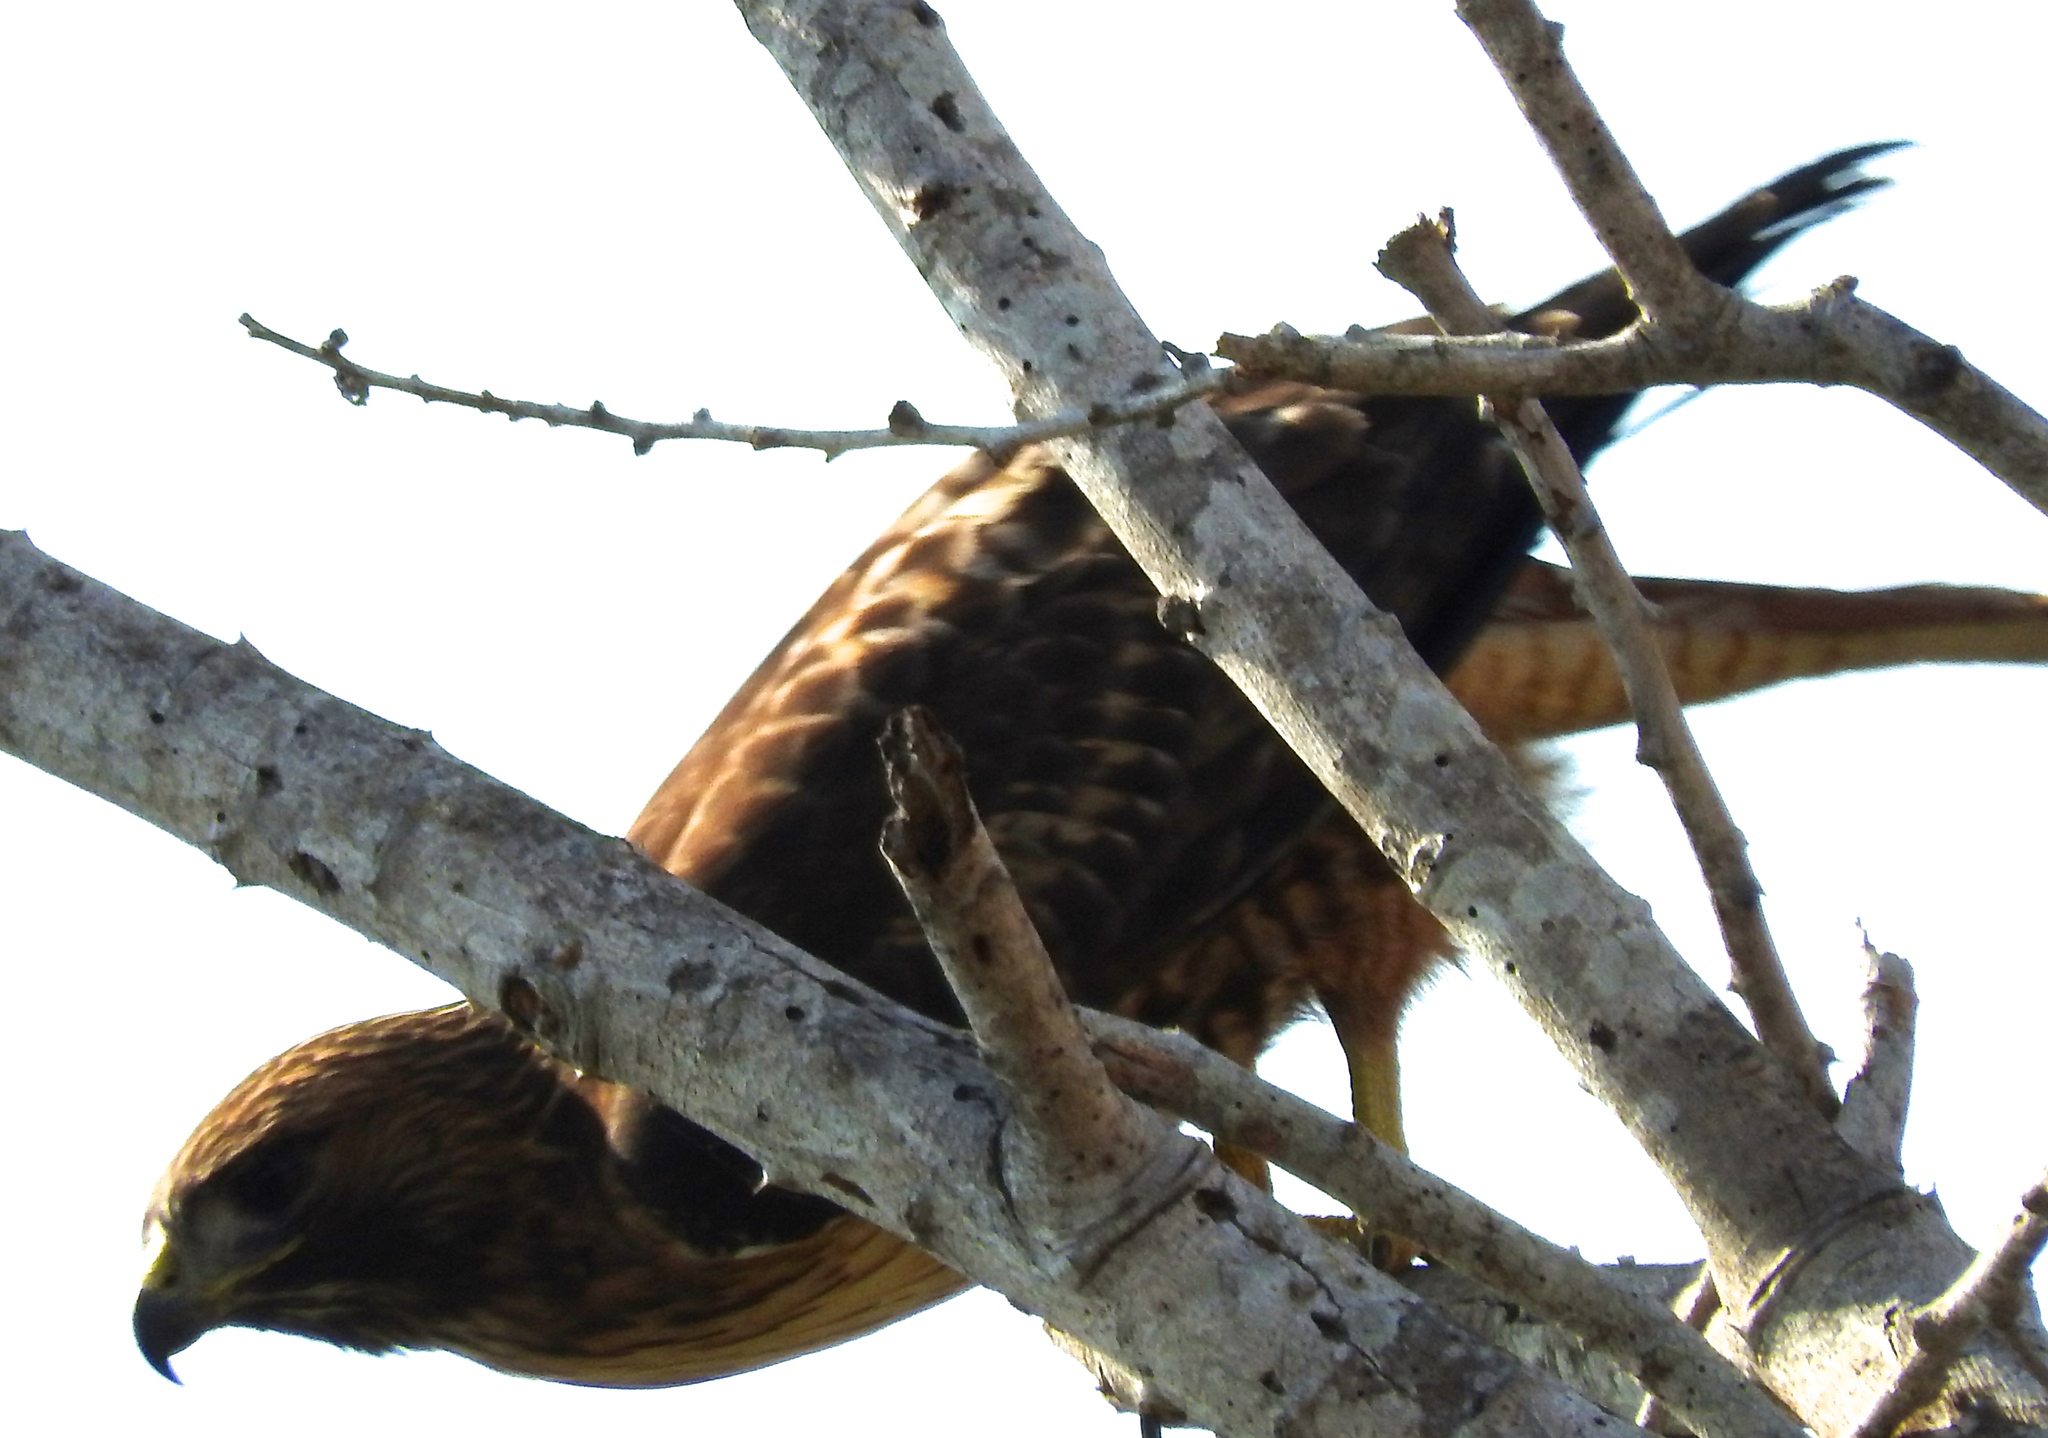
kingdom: Animalia
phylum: Chordata
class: Aves
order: Accipitriformes
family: Accipitridae
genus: Buteo
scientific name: Buteo jamaicensis
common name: Red-tailed hawk
